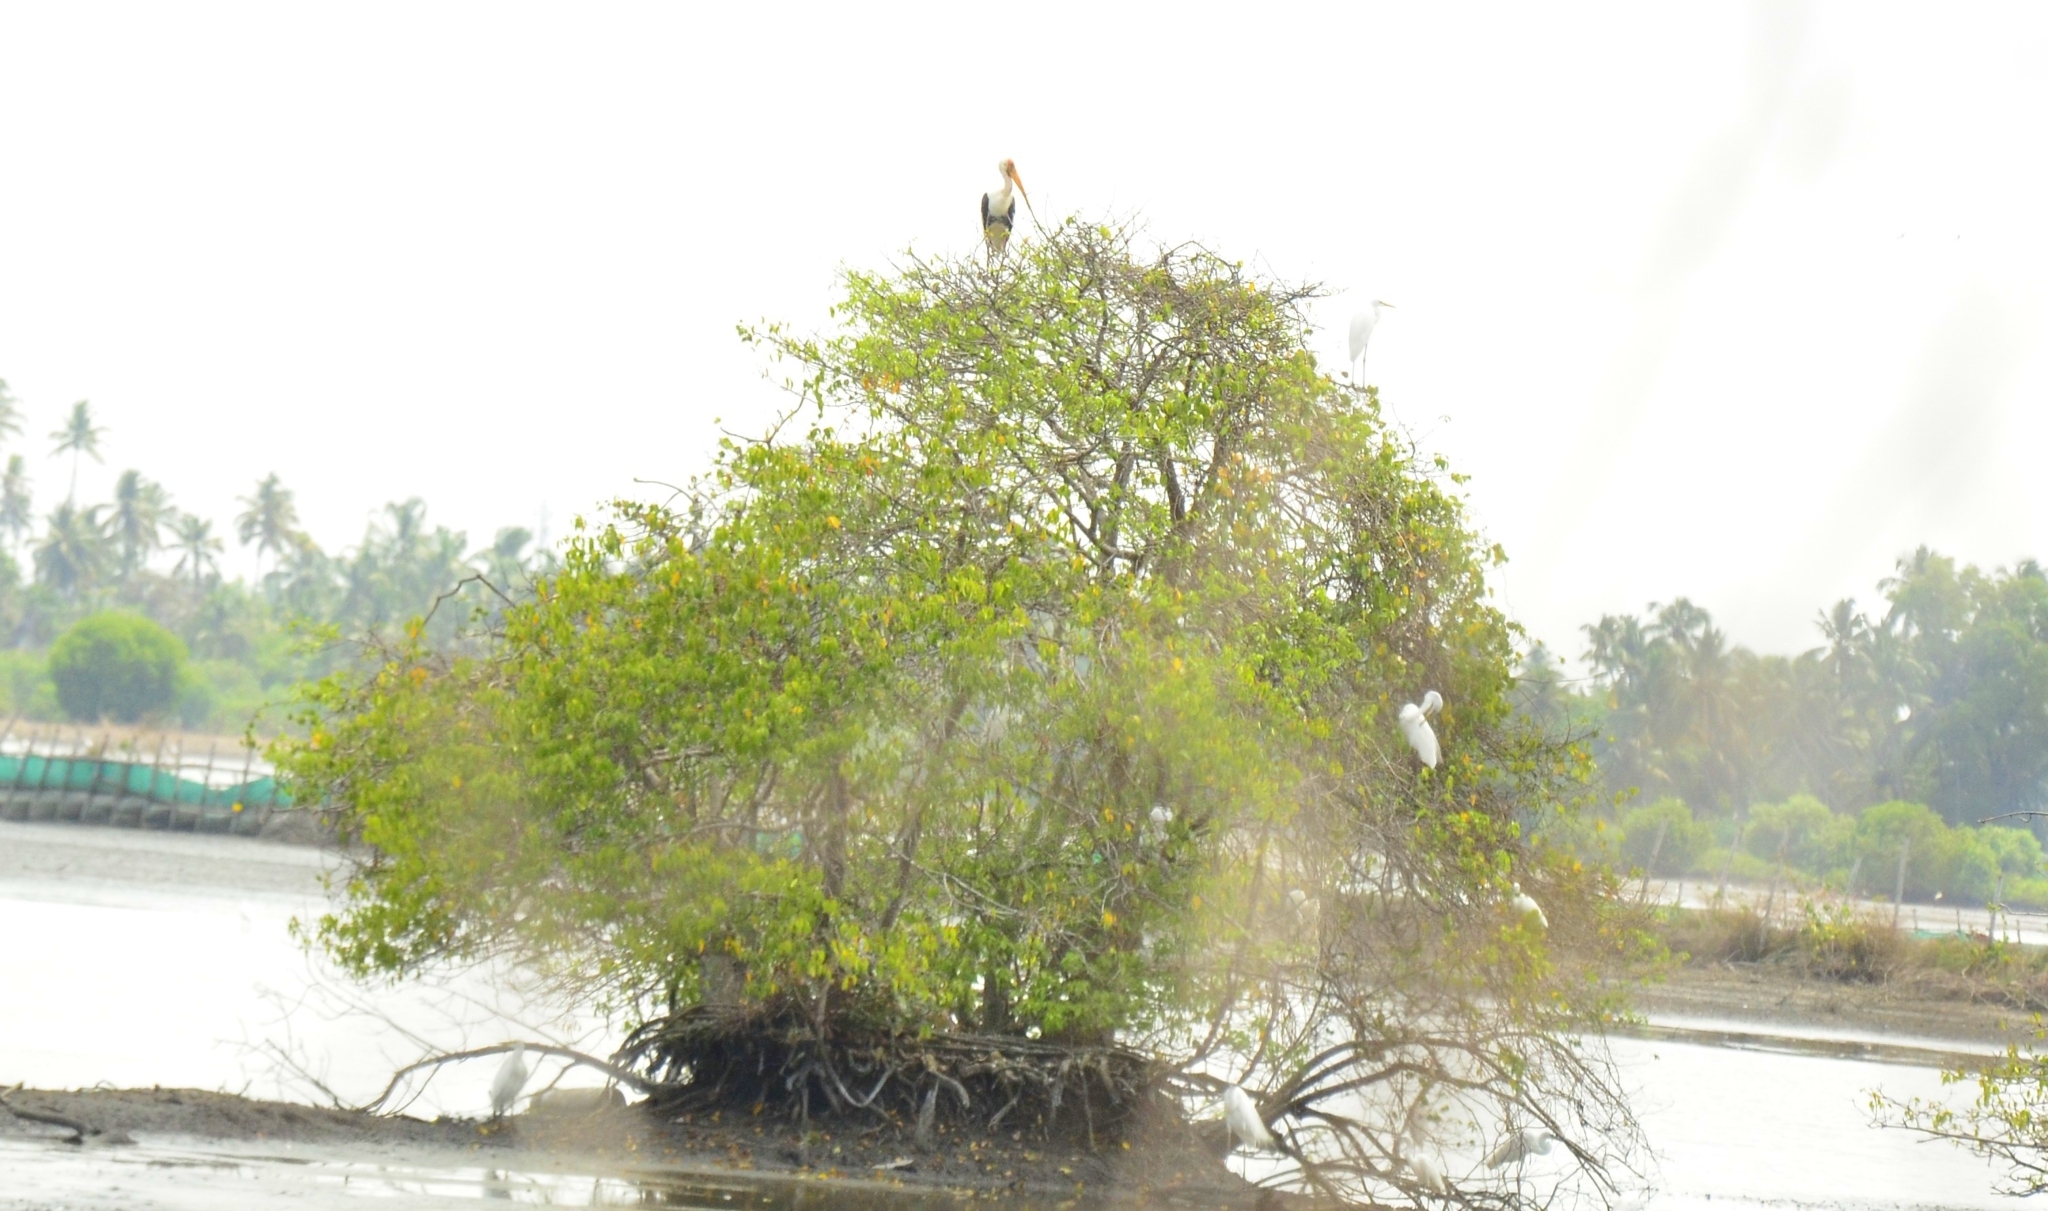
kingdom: Animalia
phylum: Chordata
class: Aves
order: Ciconiiformes
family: Ciconiidae
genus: Mycteria
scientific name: Mycteria leucocephala
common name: Painted stork
